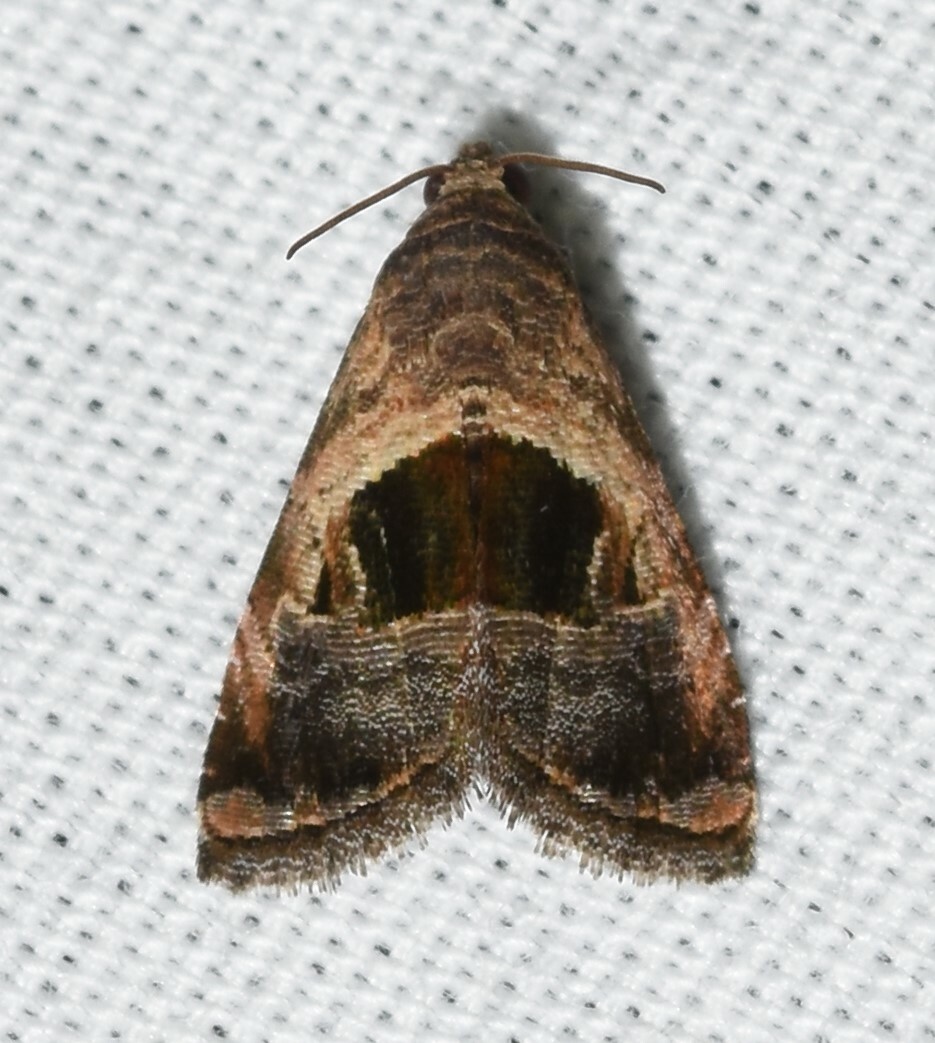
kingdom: Animalia
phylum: Arthropoda
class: Insecta
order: Lepidoptera
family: Noctuidae
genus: Tripudia
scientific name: Tripudia rectangula
